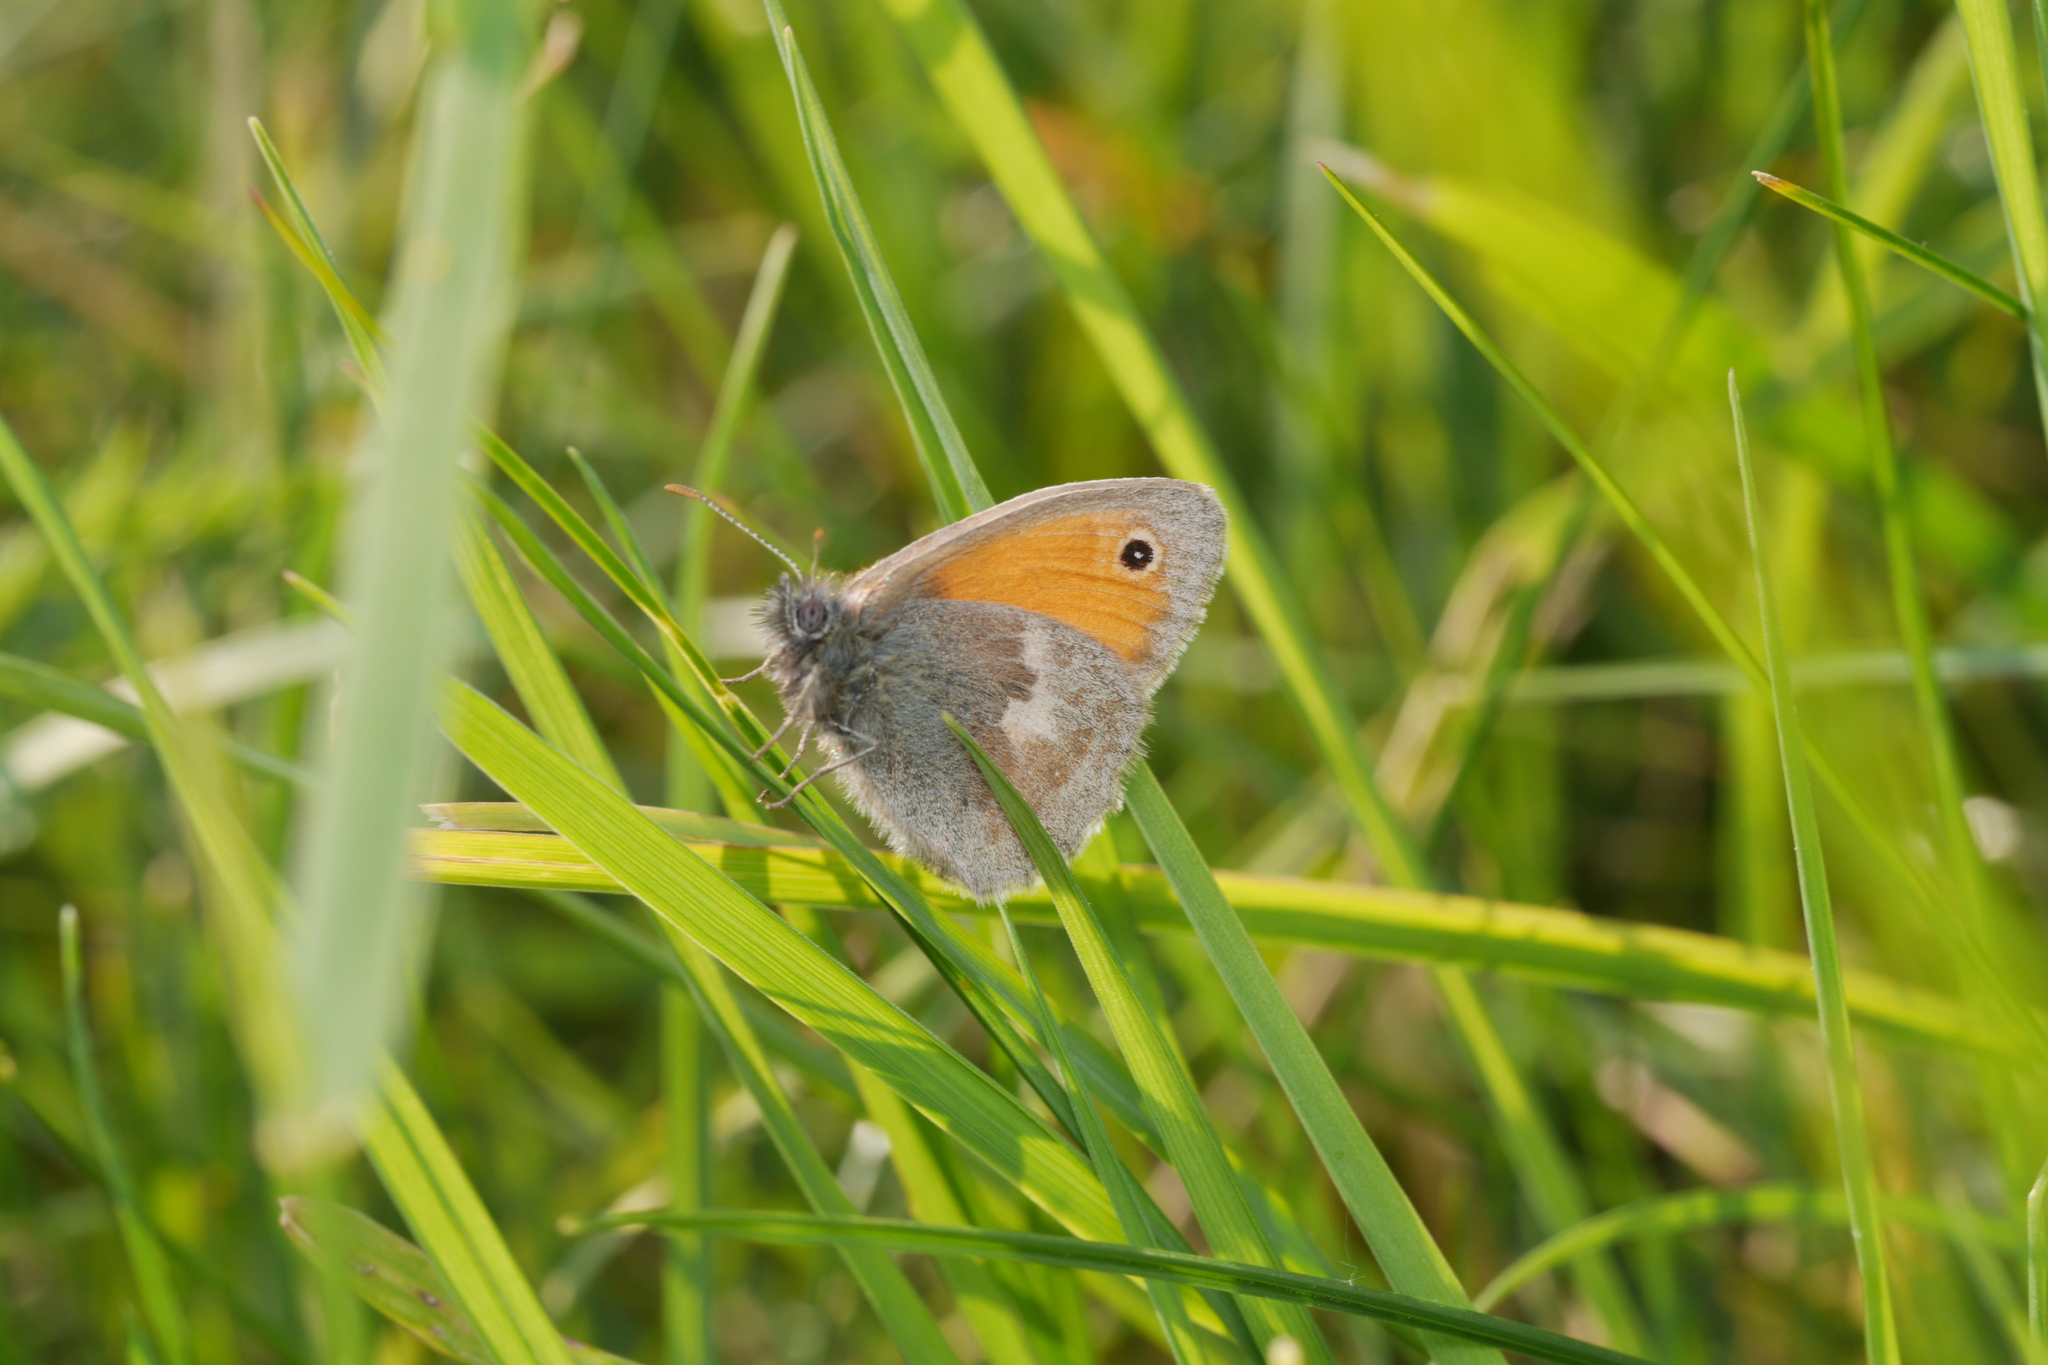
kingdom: Animalia
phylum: Arthropoda
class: Insecta
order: Lepidoptera
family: Nymphalidae
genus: Coenonympha
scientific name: Coenonympha pamphilus
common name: Small heath
